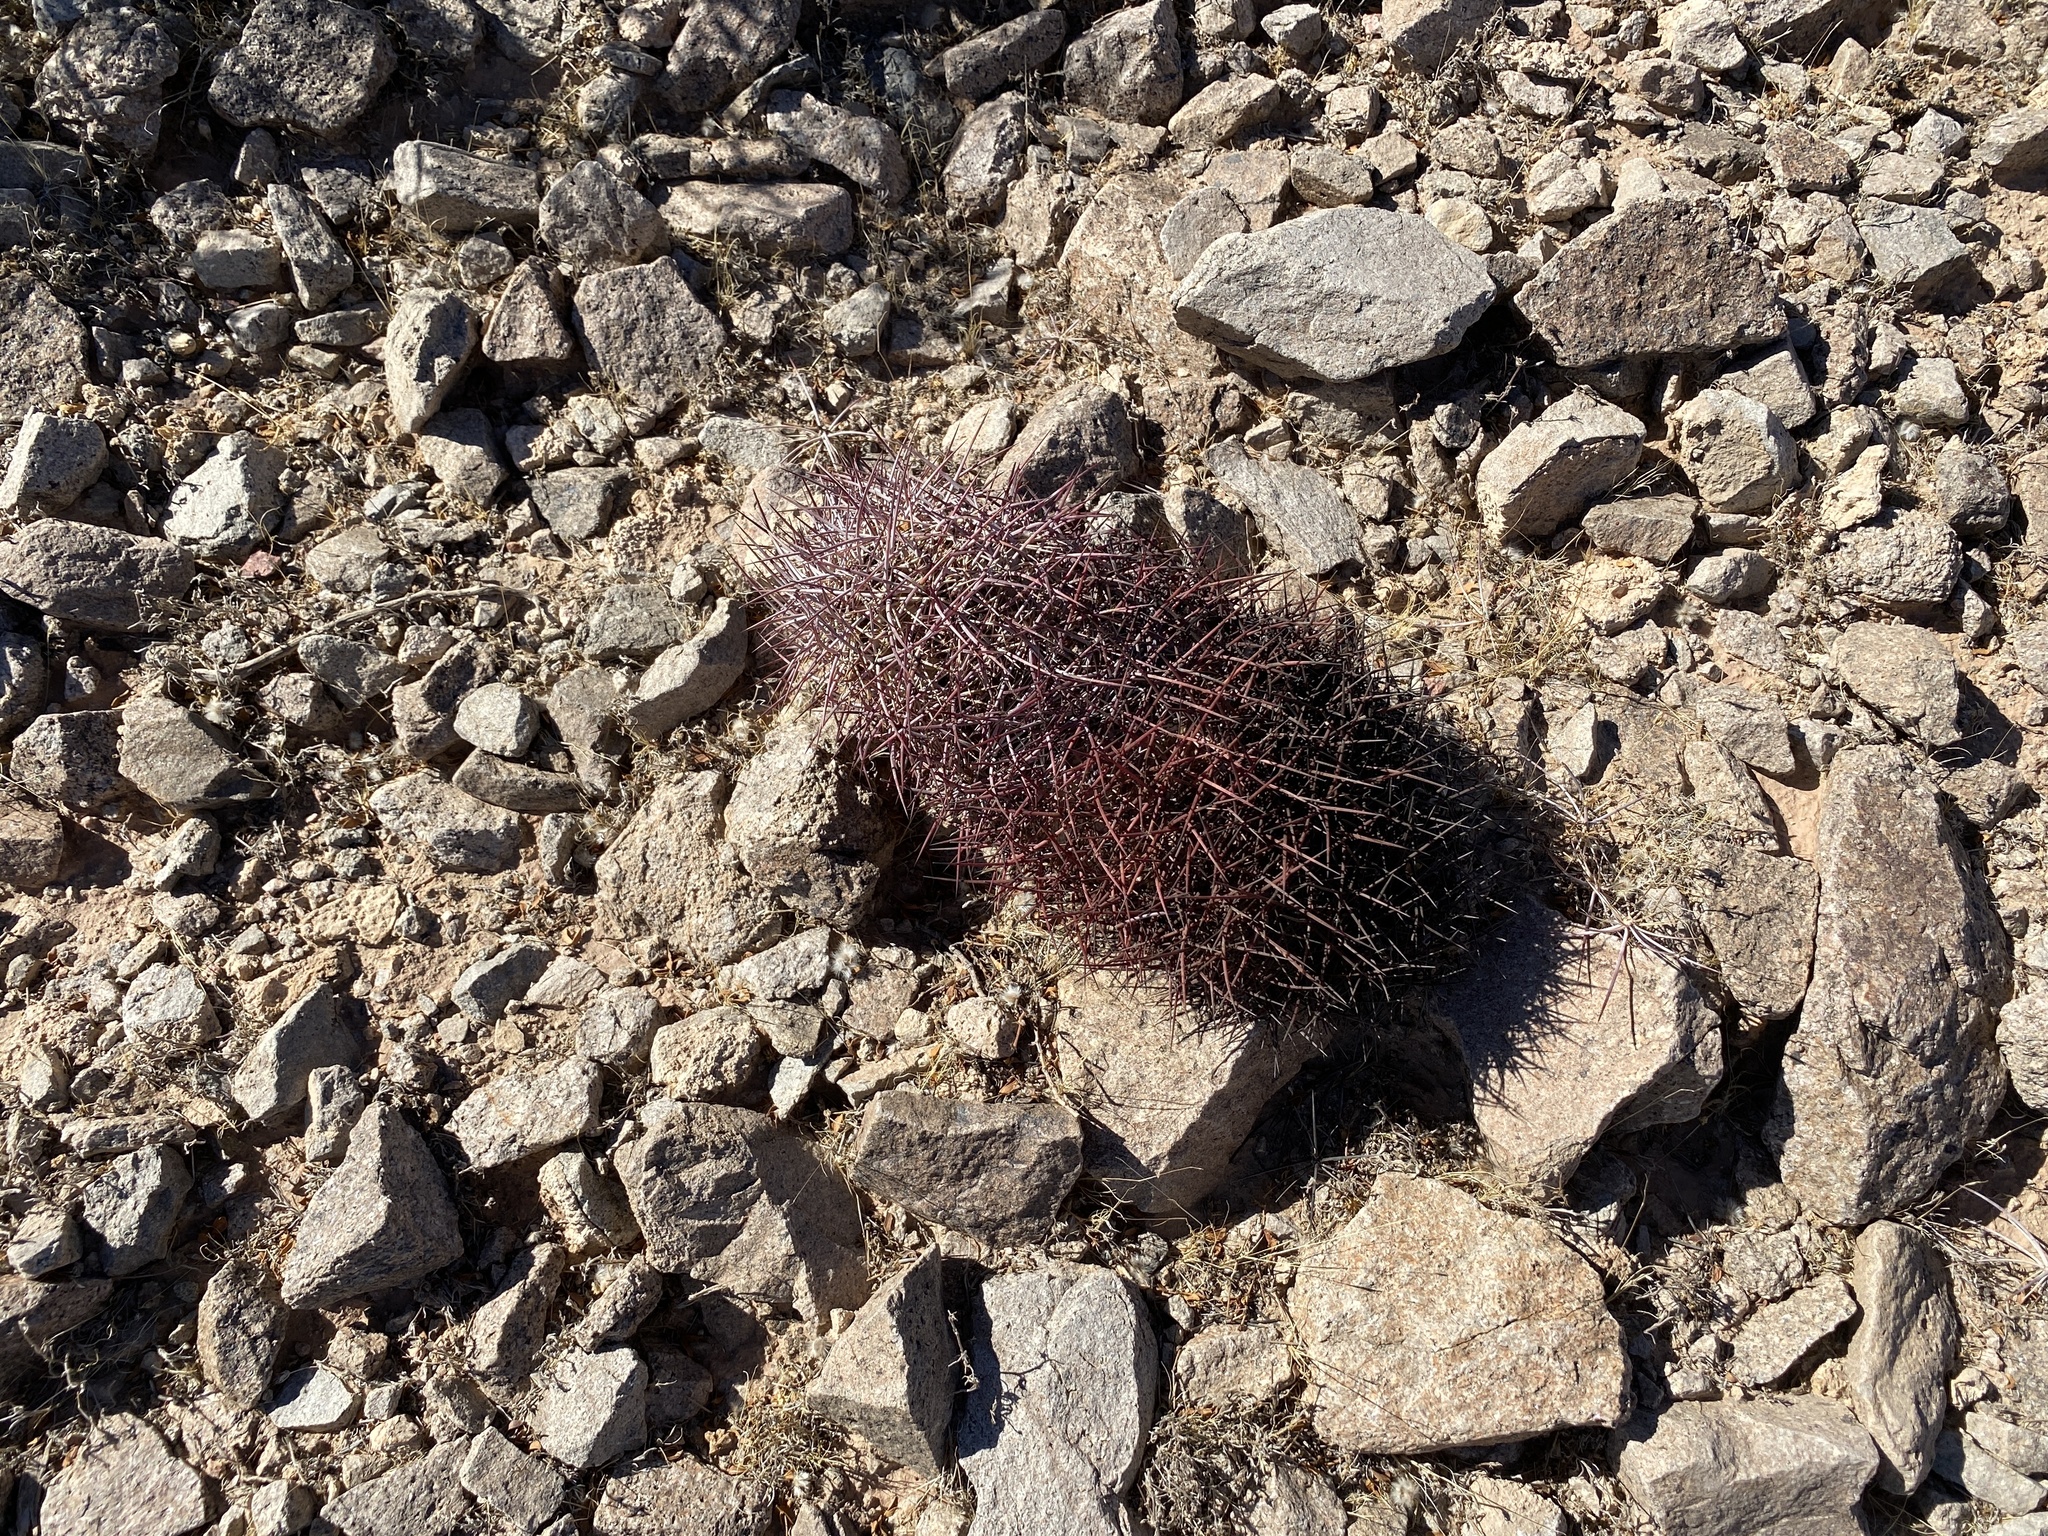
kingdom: Plantae
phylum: Tracheophyta
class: Magnoliopsida
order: Caryophyllales
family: Cactaceae
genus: Sclerocactus
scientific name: Sclerocactus johnsonii
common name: Eight-spine fishhook cactus
